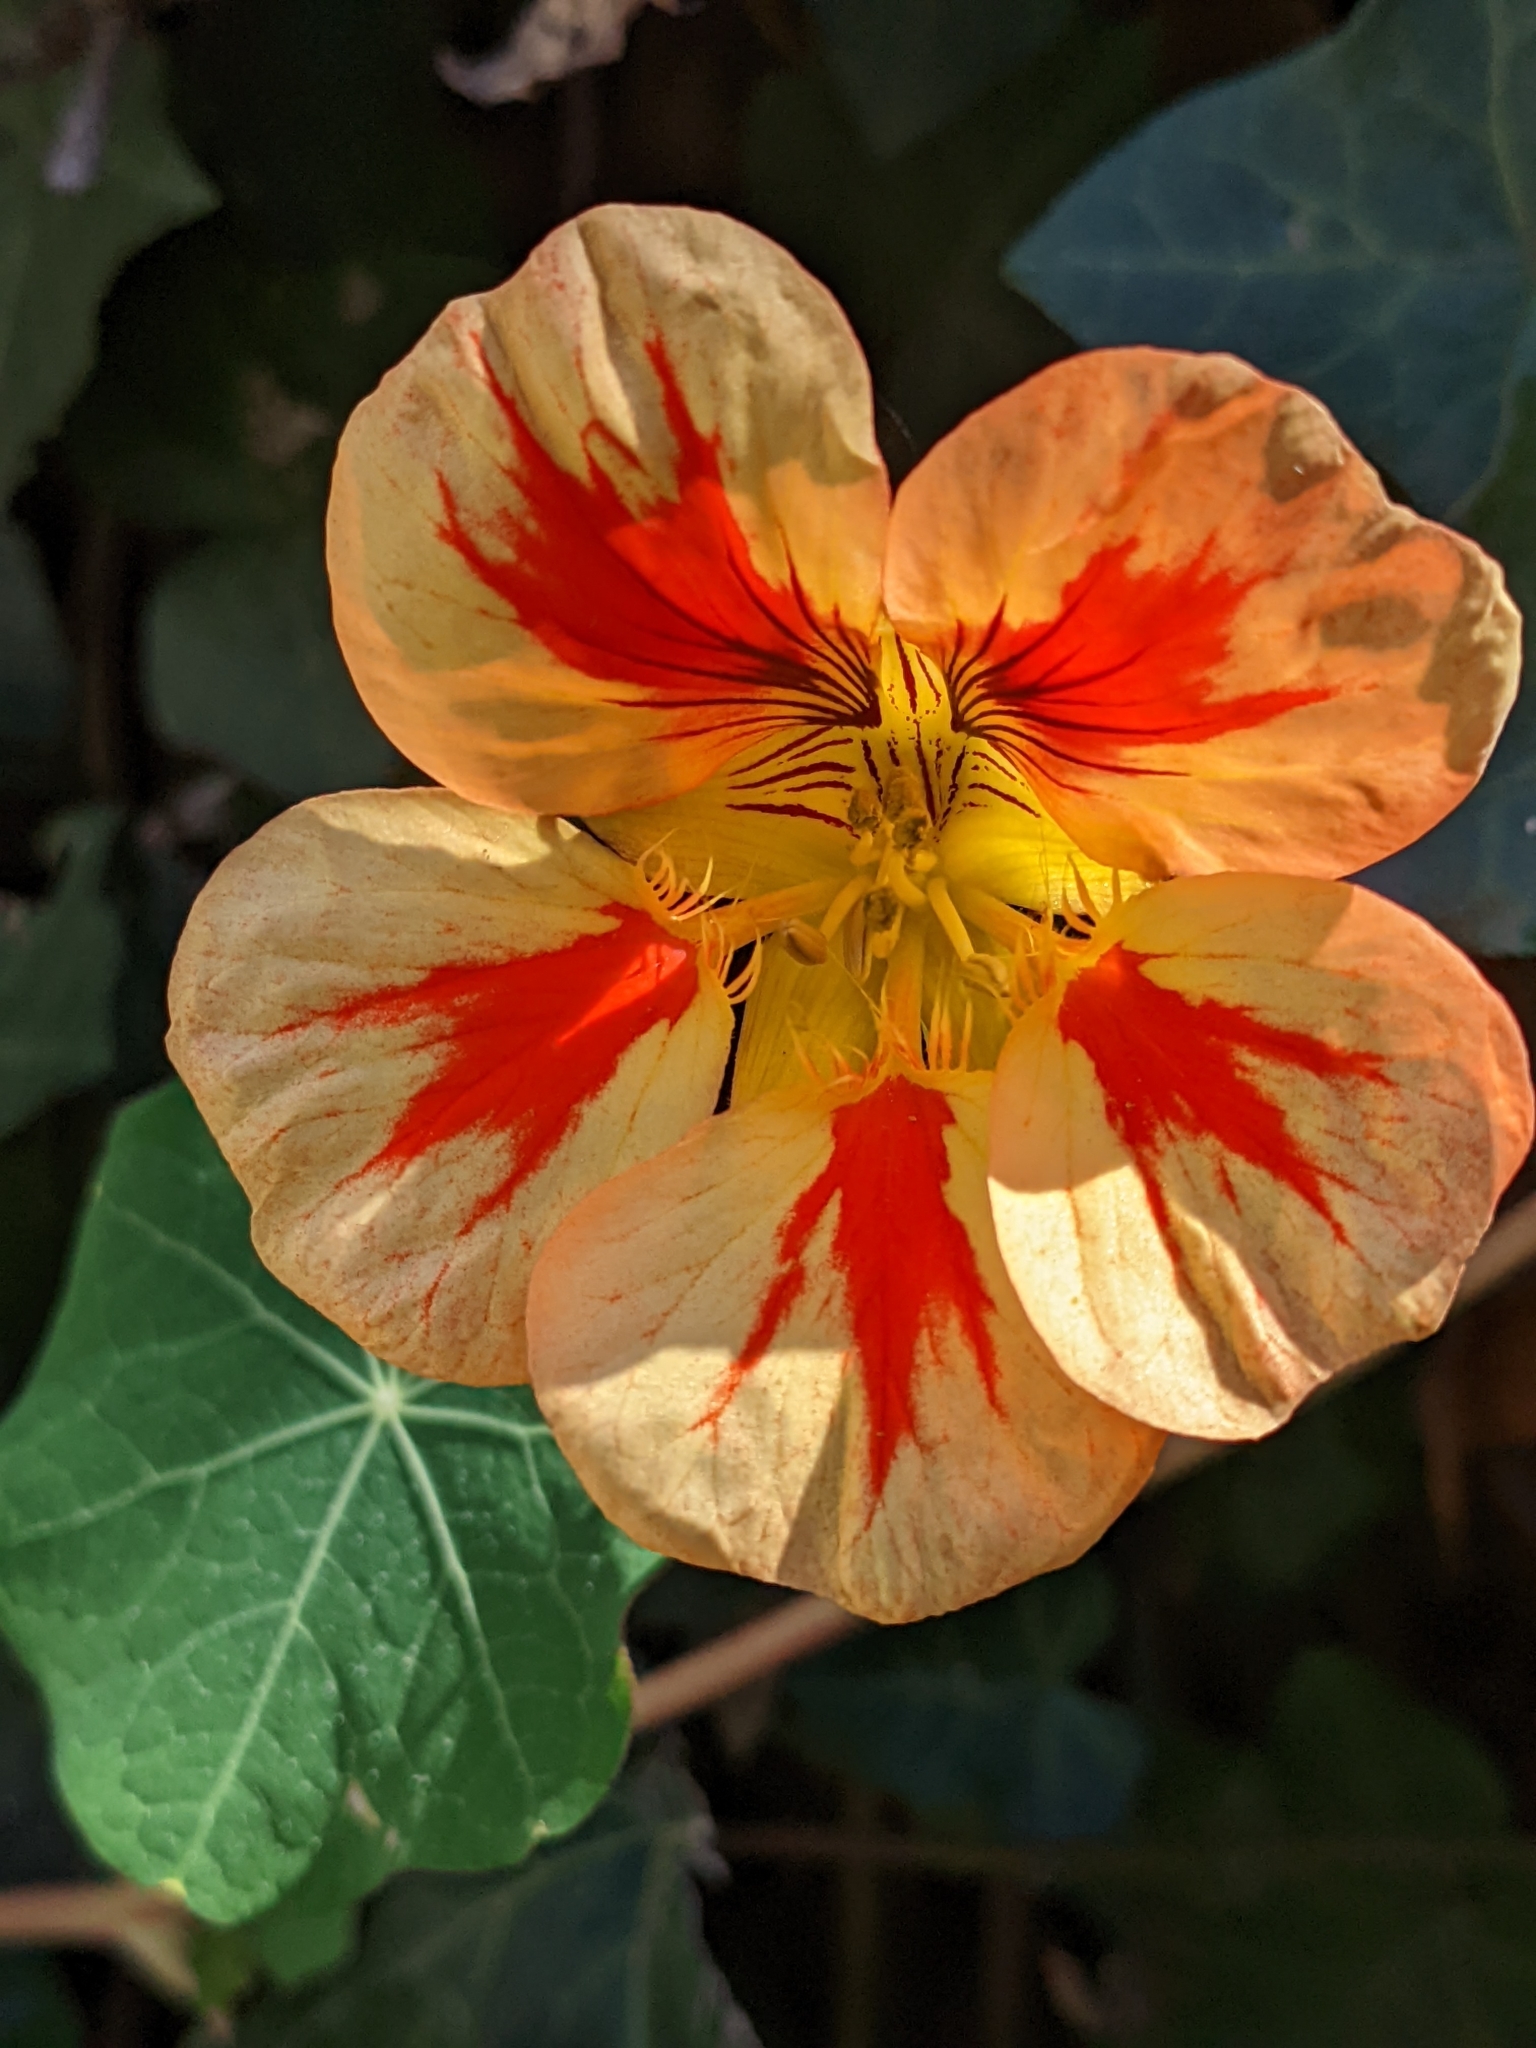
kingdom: Plantae
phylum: Tracheophyta
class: Magnoliopsida
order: Brassicales
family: Tropaeolaceae
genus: Tropaeolum
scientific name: Tropaeolum majus
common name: Nasturtium
